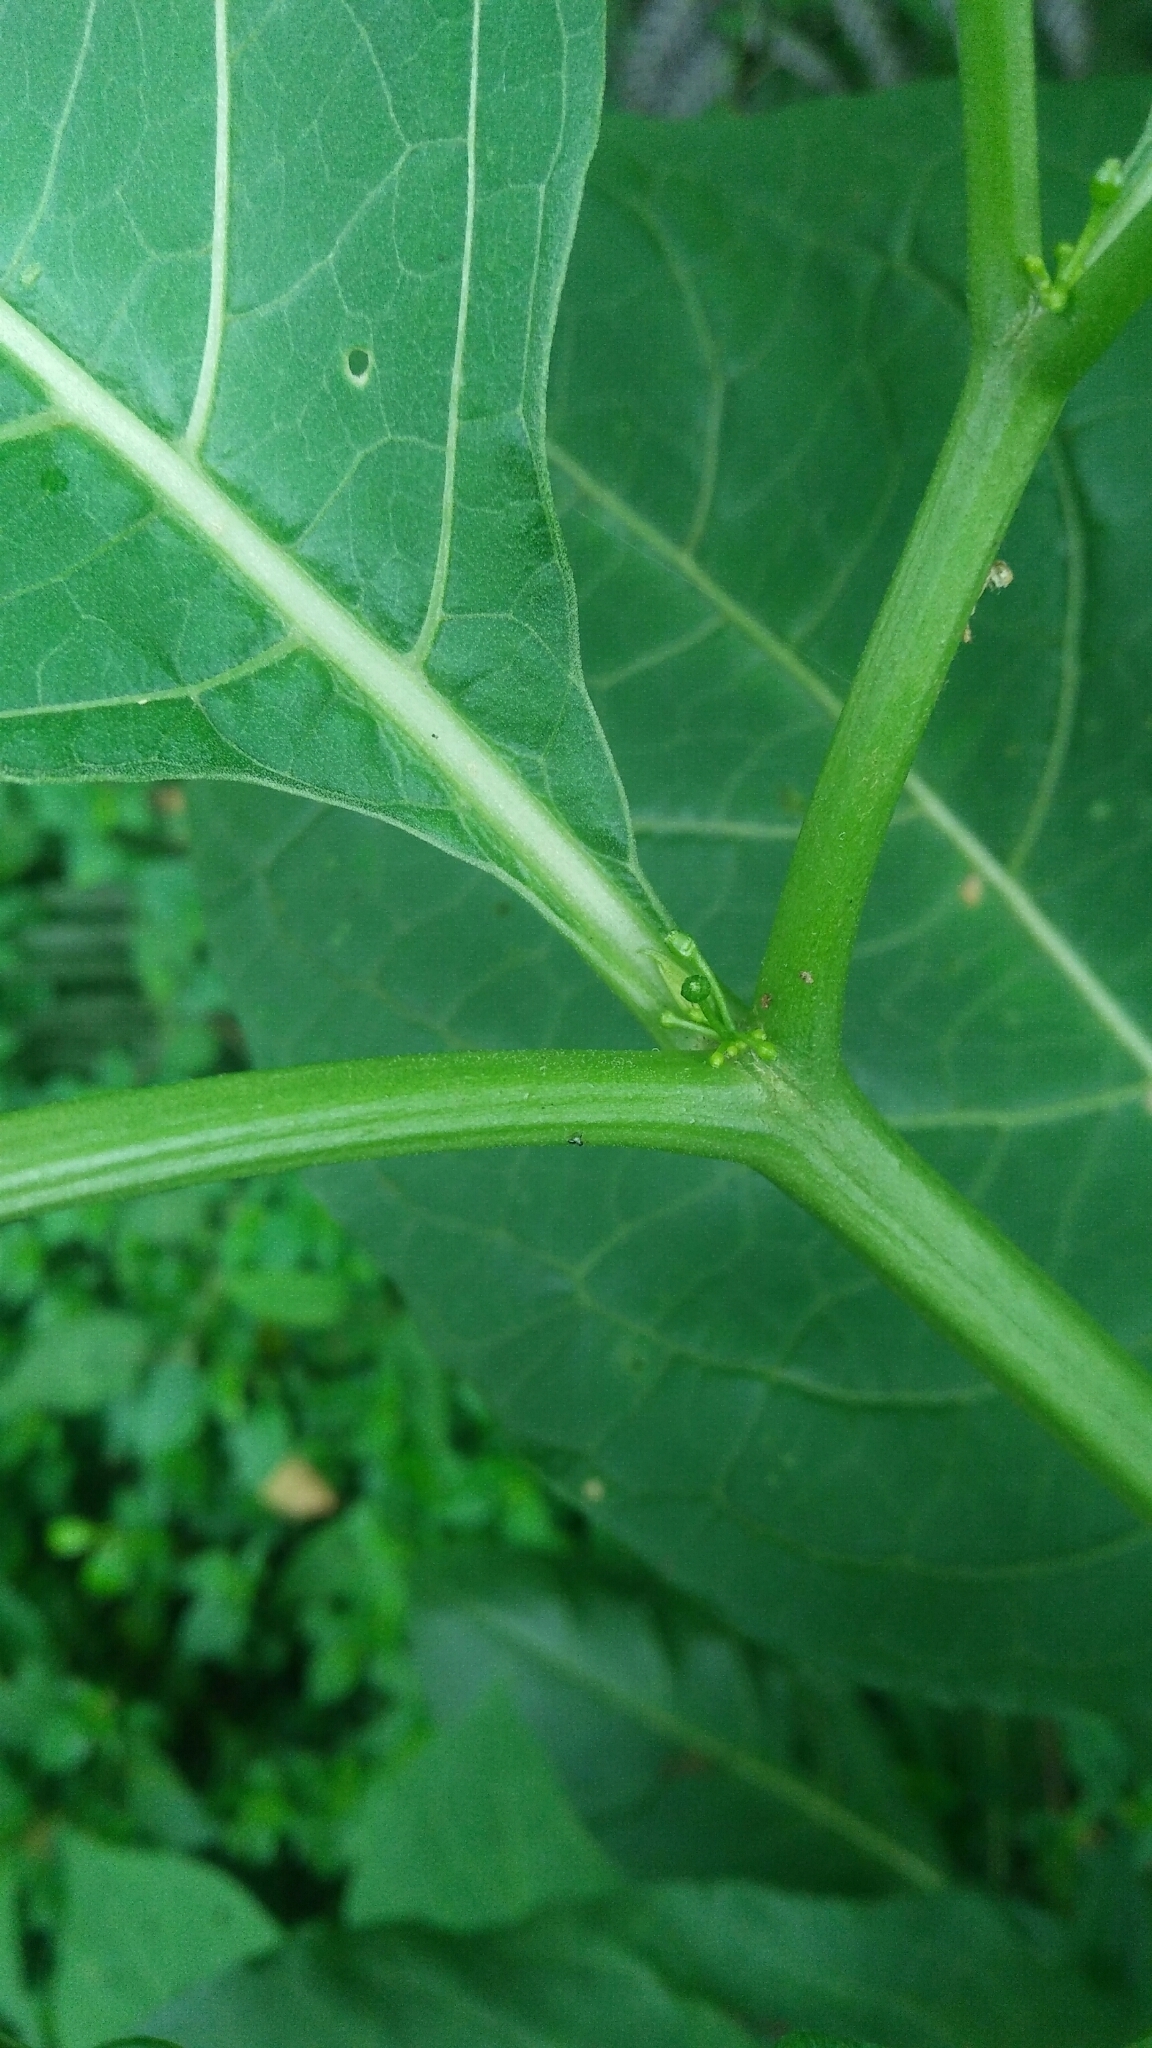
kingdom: Plantae
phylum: Tracheophyta
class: Magnoliopsida
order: Solanales
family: Solanaceae
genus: Tubocapsicum
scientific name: Tubocapsicum anomalum
